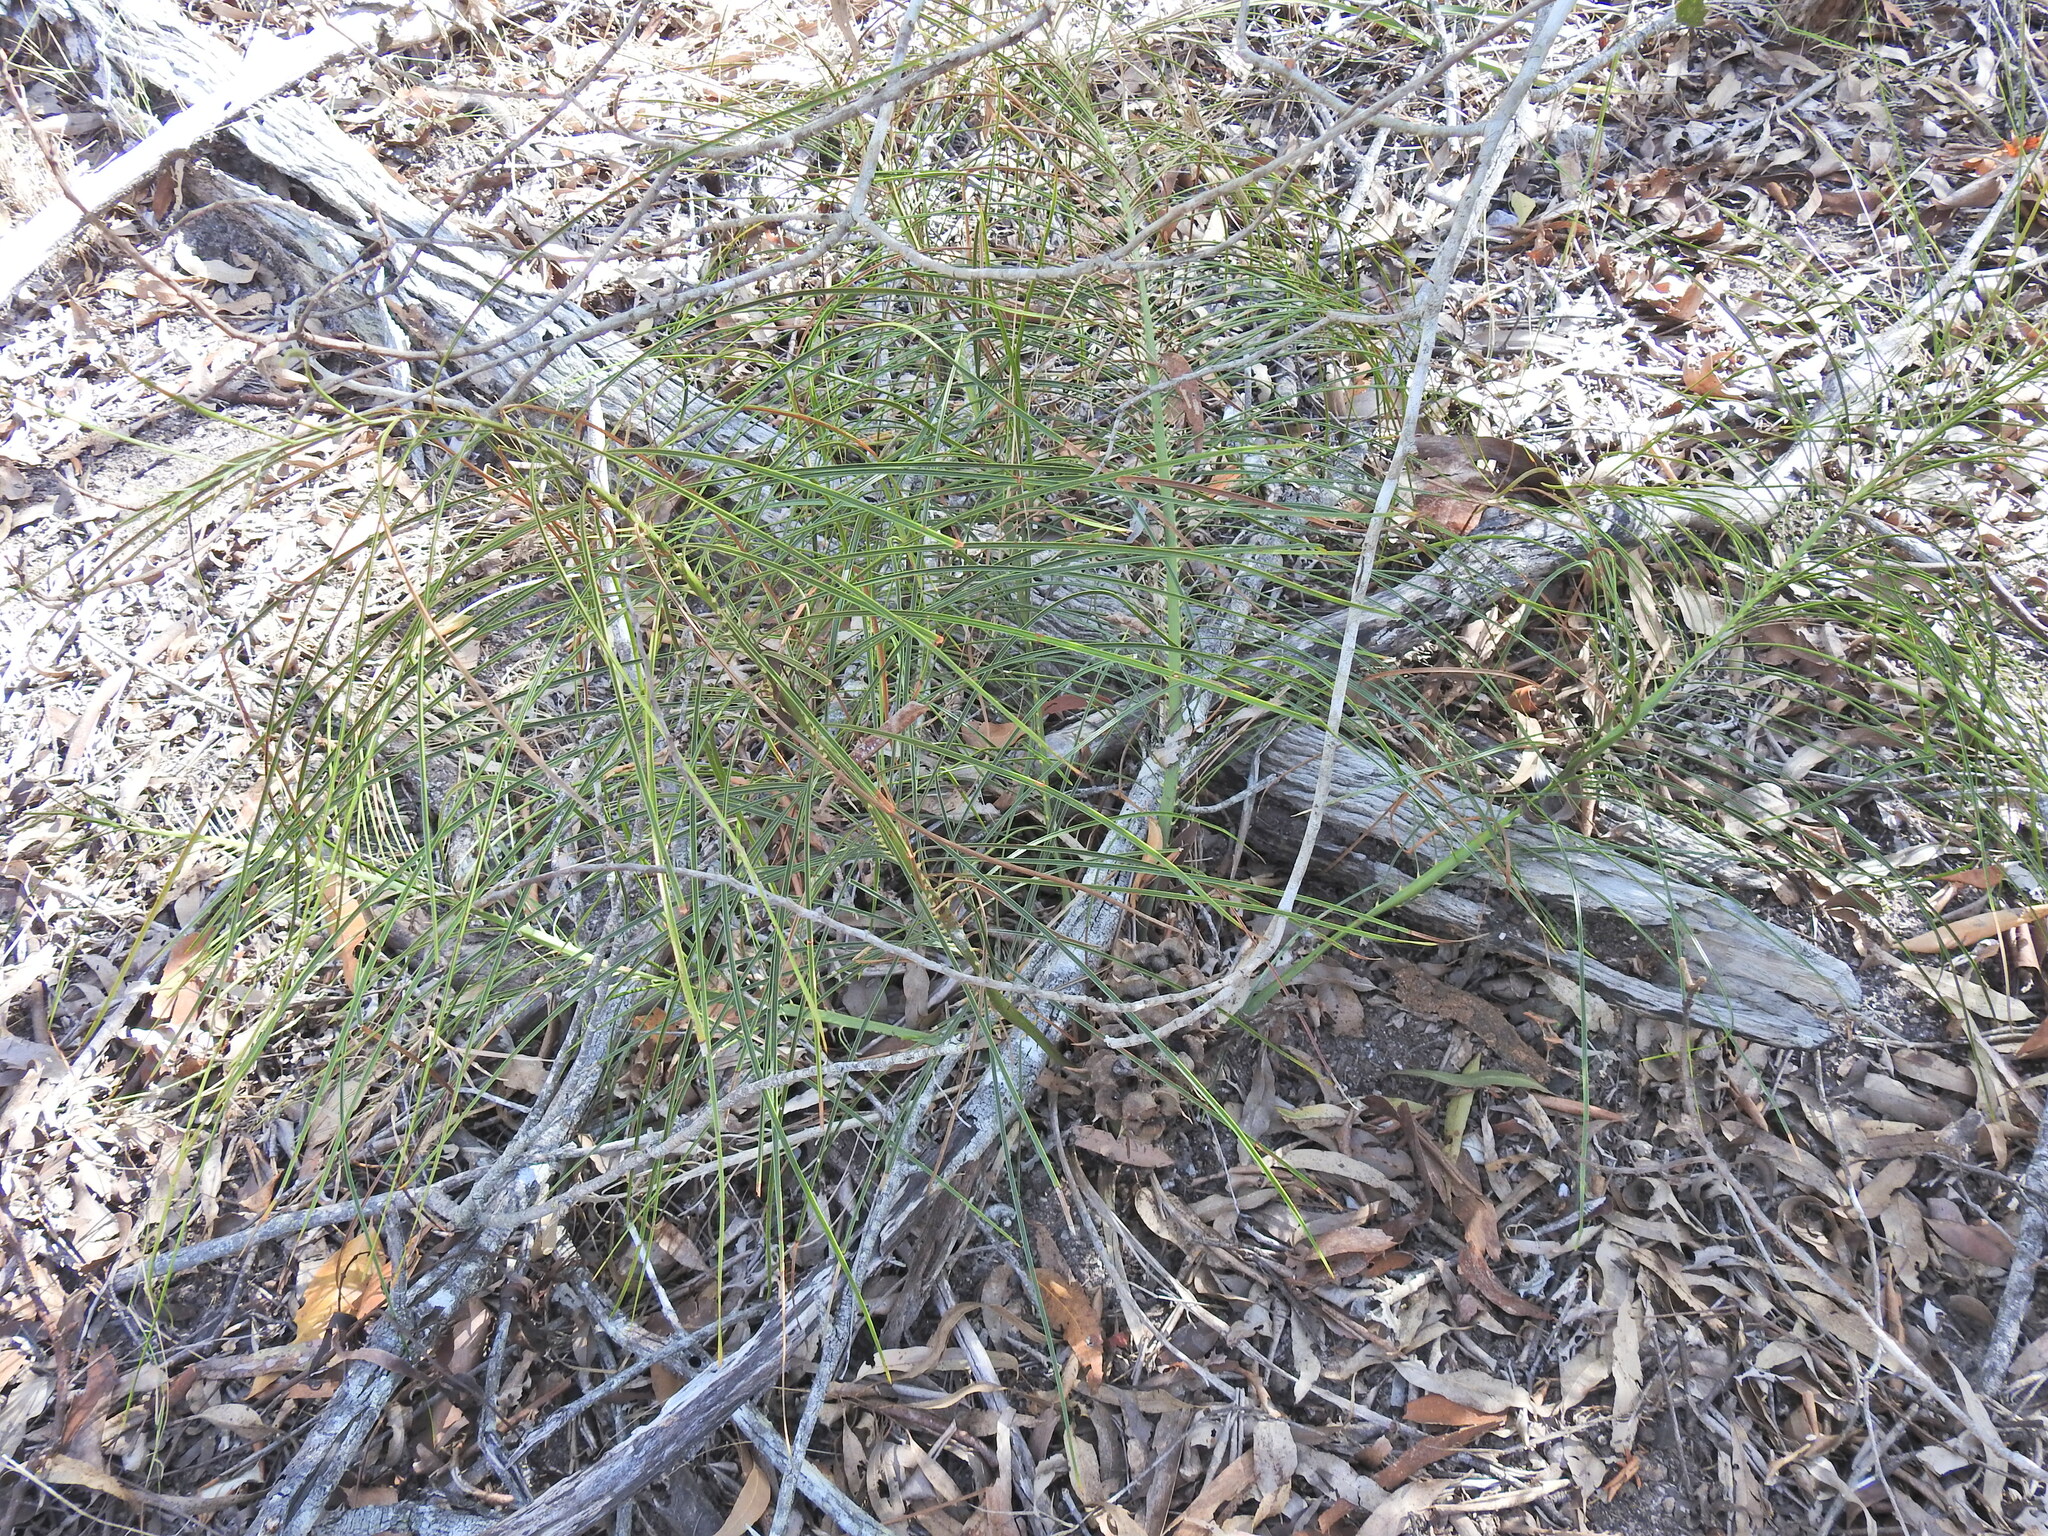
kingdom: Plantae
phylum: Tracheophyta
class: Cycadopsida
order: Cycadales
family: Zamiaceae
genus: Macrozamia
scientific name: Macrozamia pauli-guilielmi
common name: Pineapple zamia
